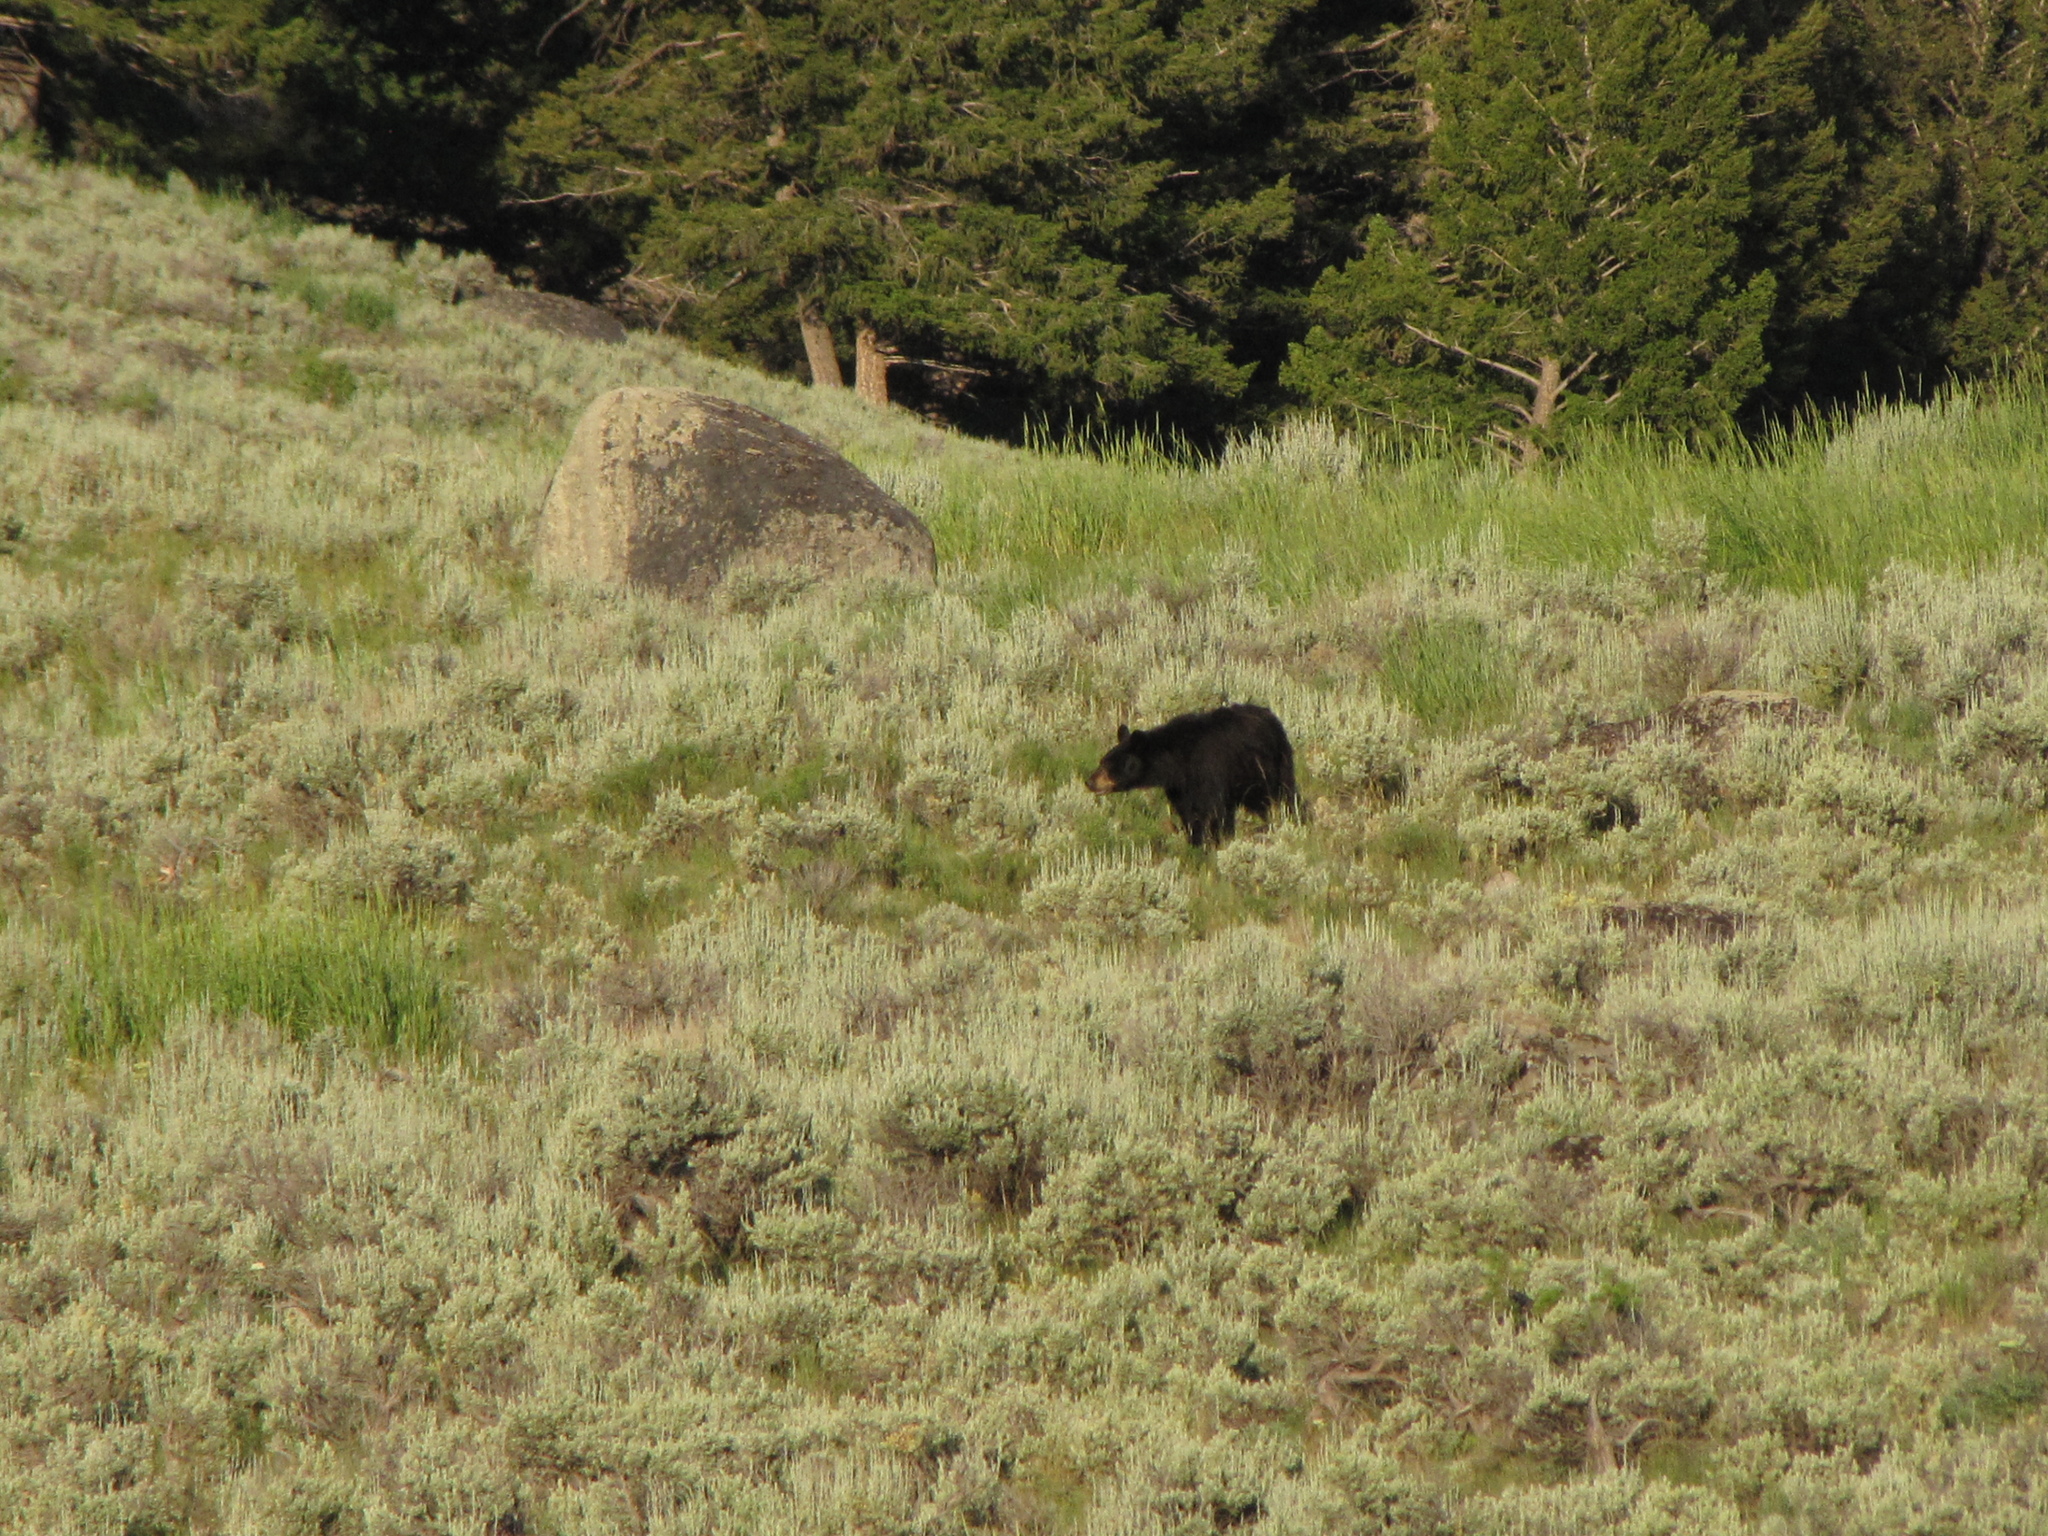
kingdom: Animalia
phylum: Chordata
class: Mammalia
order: Carnivora
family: Ursidae
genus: Ursus
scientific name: Ursus americanus
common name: American black bear
